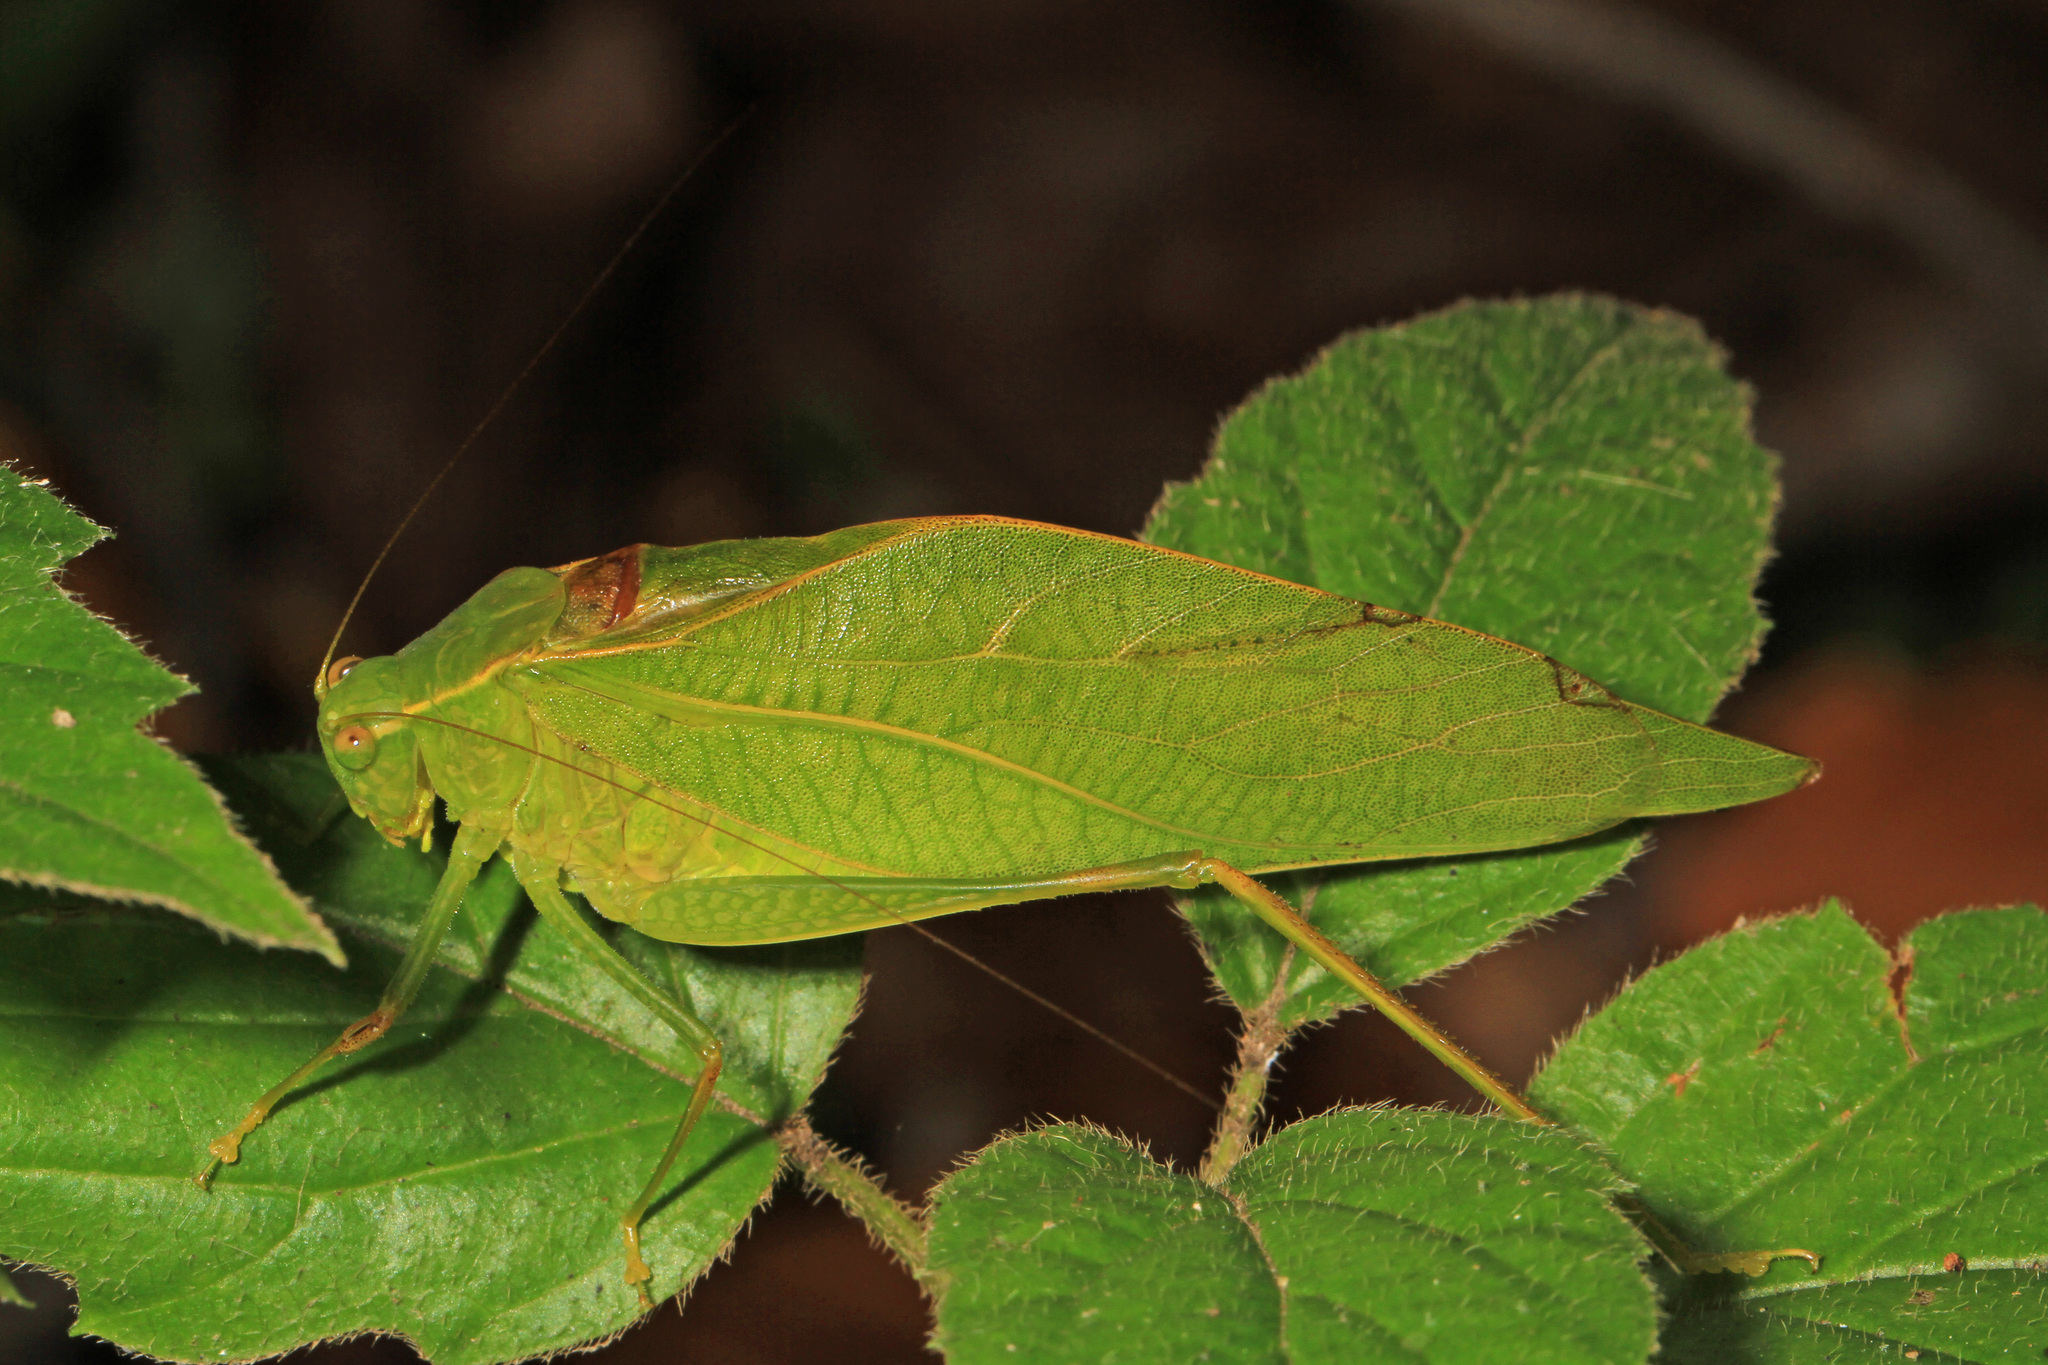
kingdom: Animalia
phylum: Arthropoda
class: Insecta
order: Orthoptera
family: Tettigoniidae
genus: Microcentrum
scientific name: Microcentrum retinerve
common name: Angular-winged katydid
